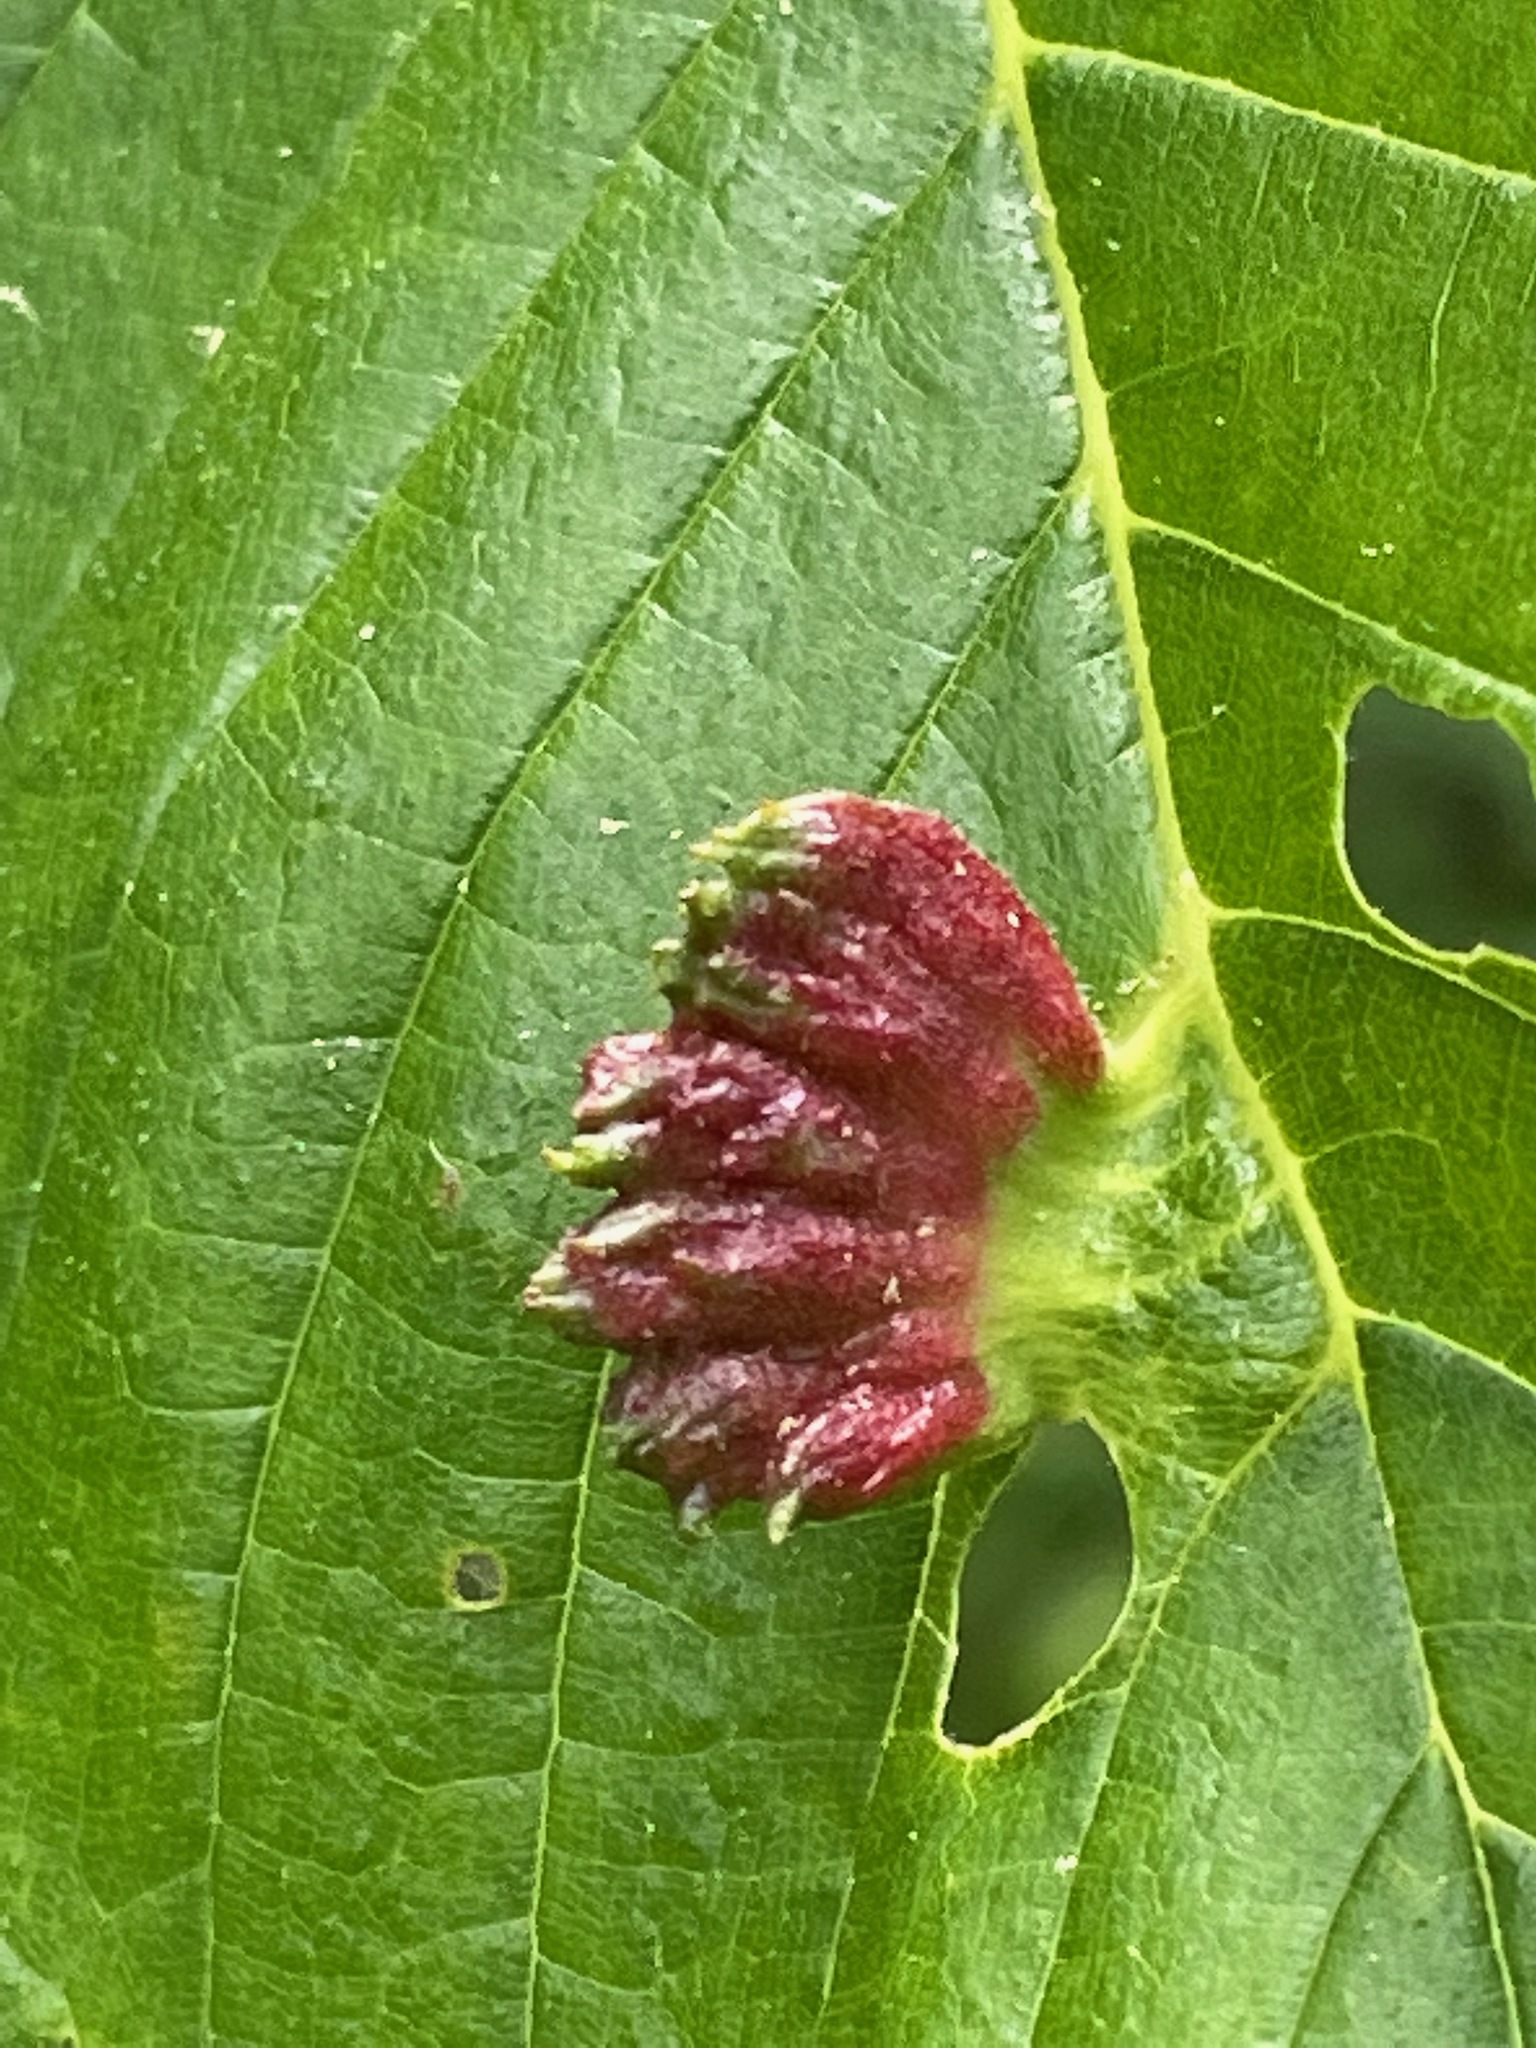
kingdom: Animalia
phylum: Arthropoda
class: Insecta
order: Hemiptera
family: Aphididae
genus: Colopha
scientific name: Colopha ulmicola
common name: Elm cockscombgall aphid
